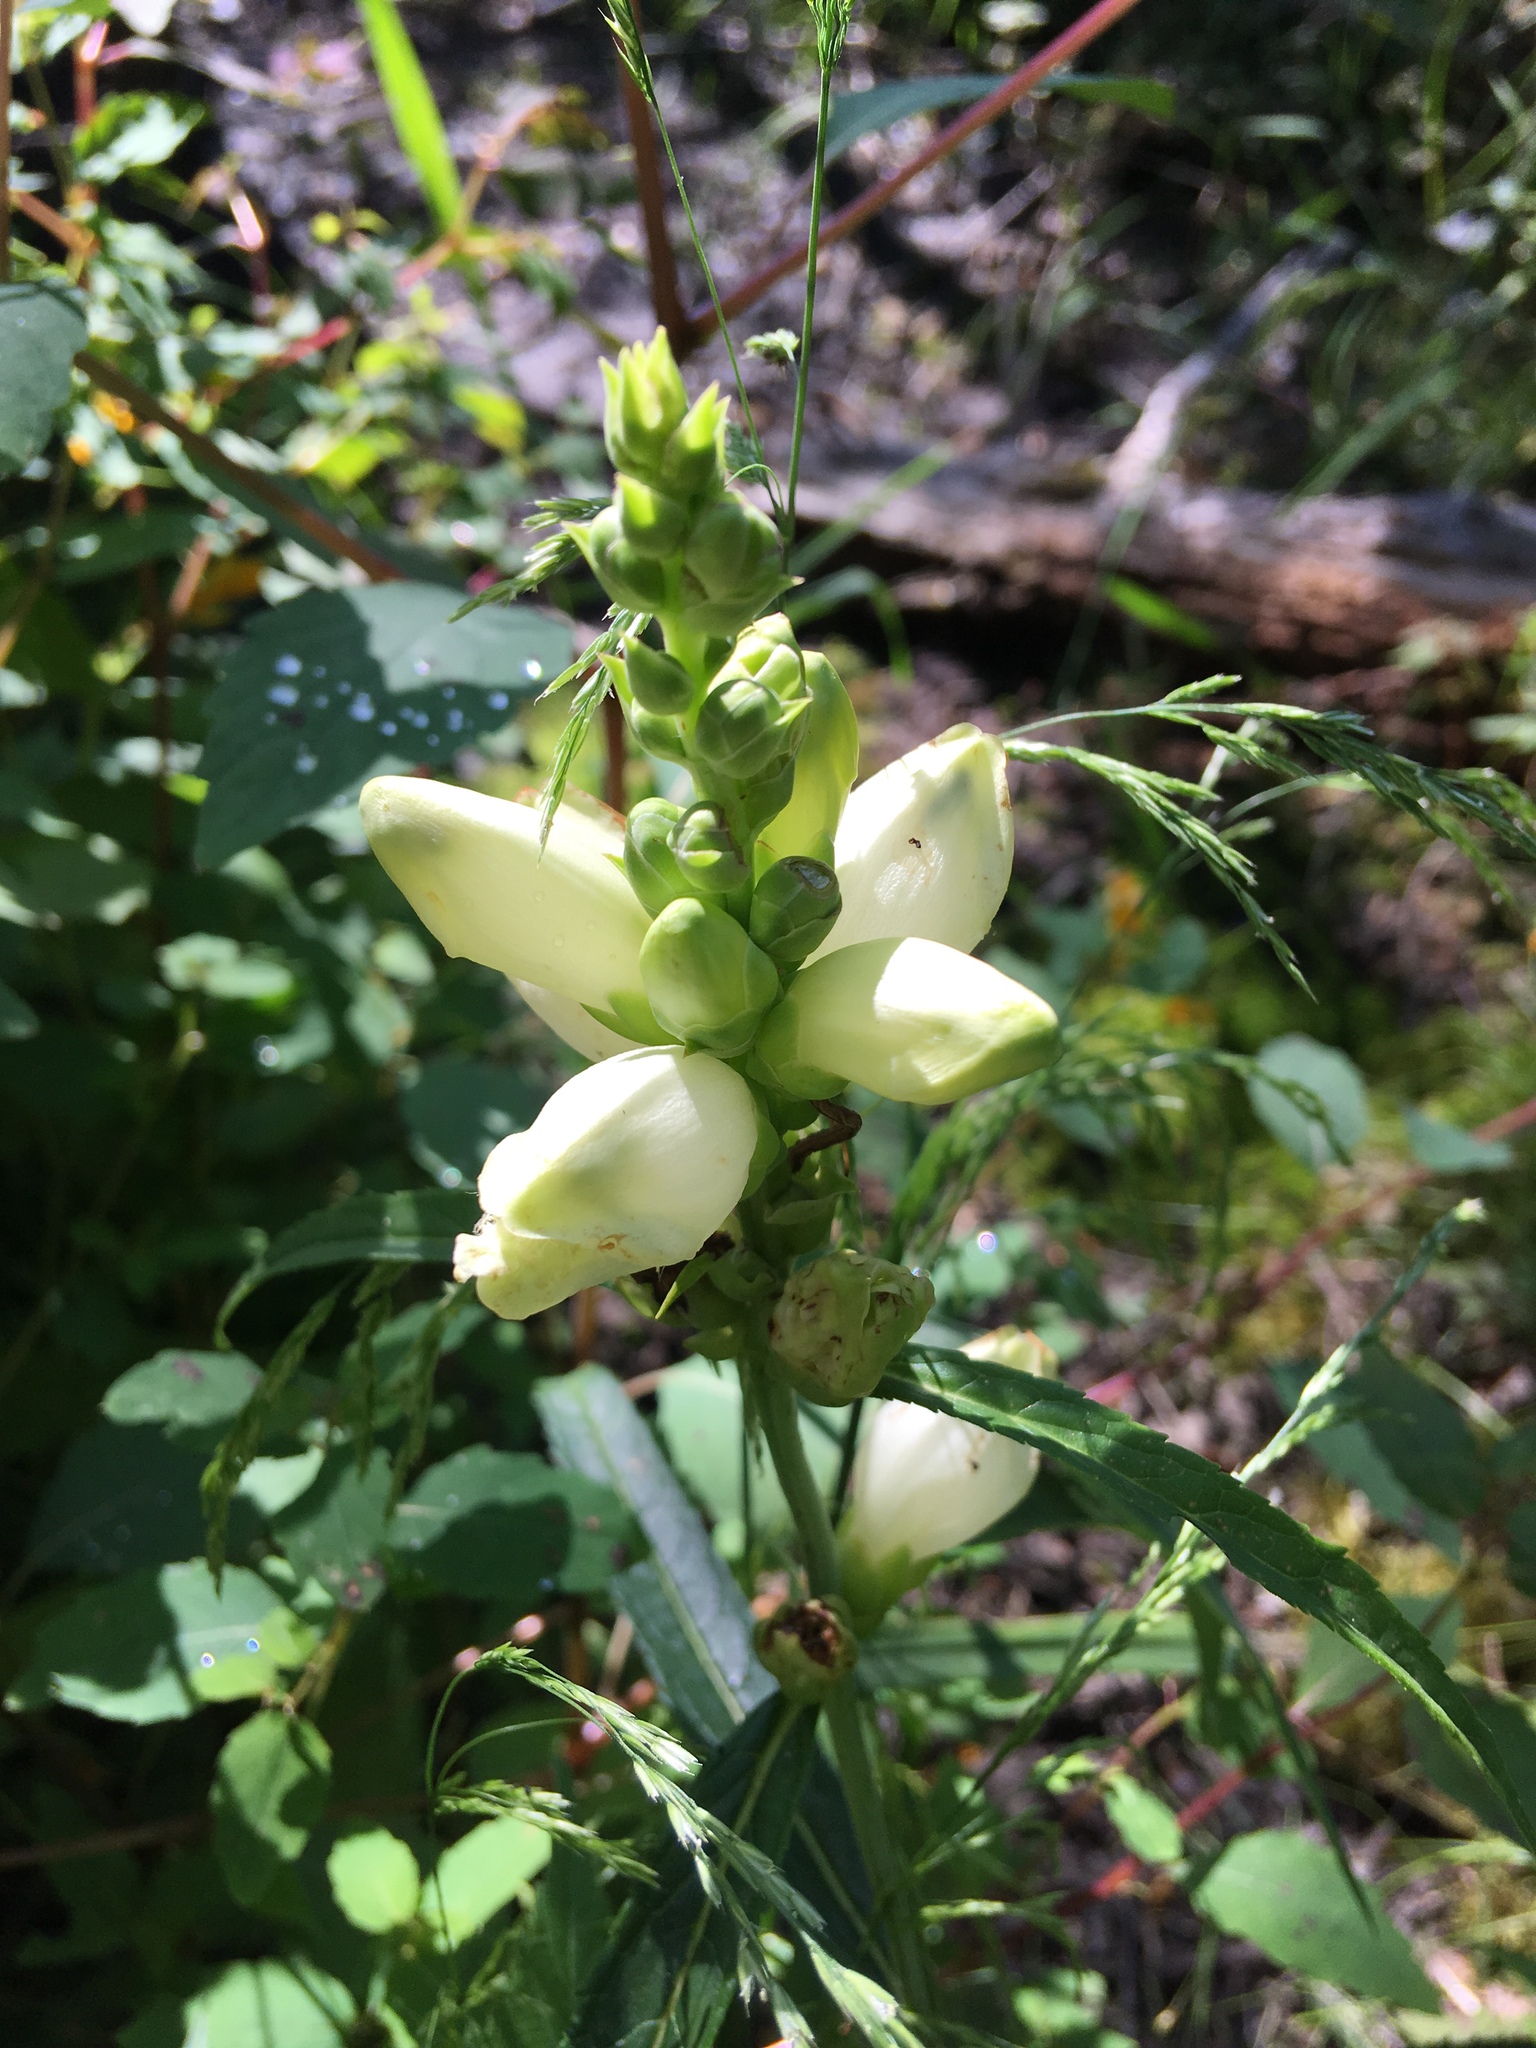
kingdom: Plantae
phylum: Tracheophyta
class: Magnoliopsida
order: Lamiales
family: Plantaginaceae
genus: Chelone
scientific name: Chelone glabra
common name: Snakehead
